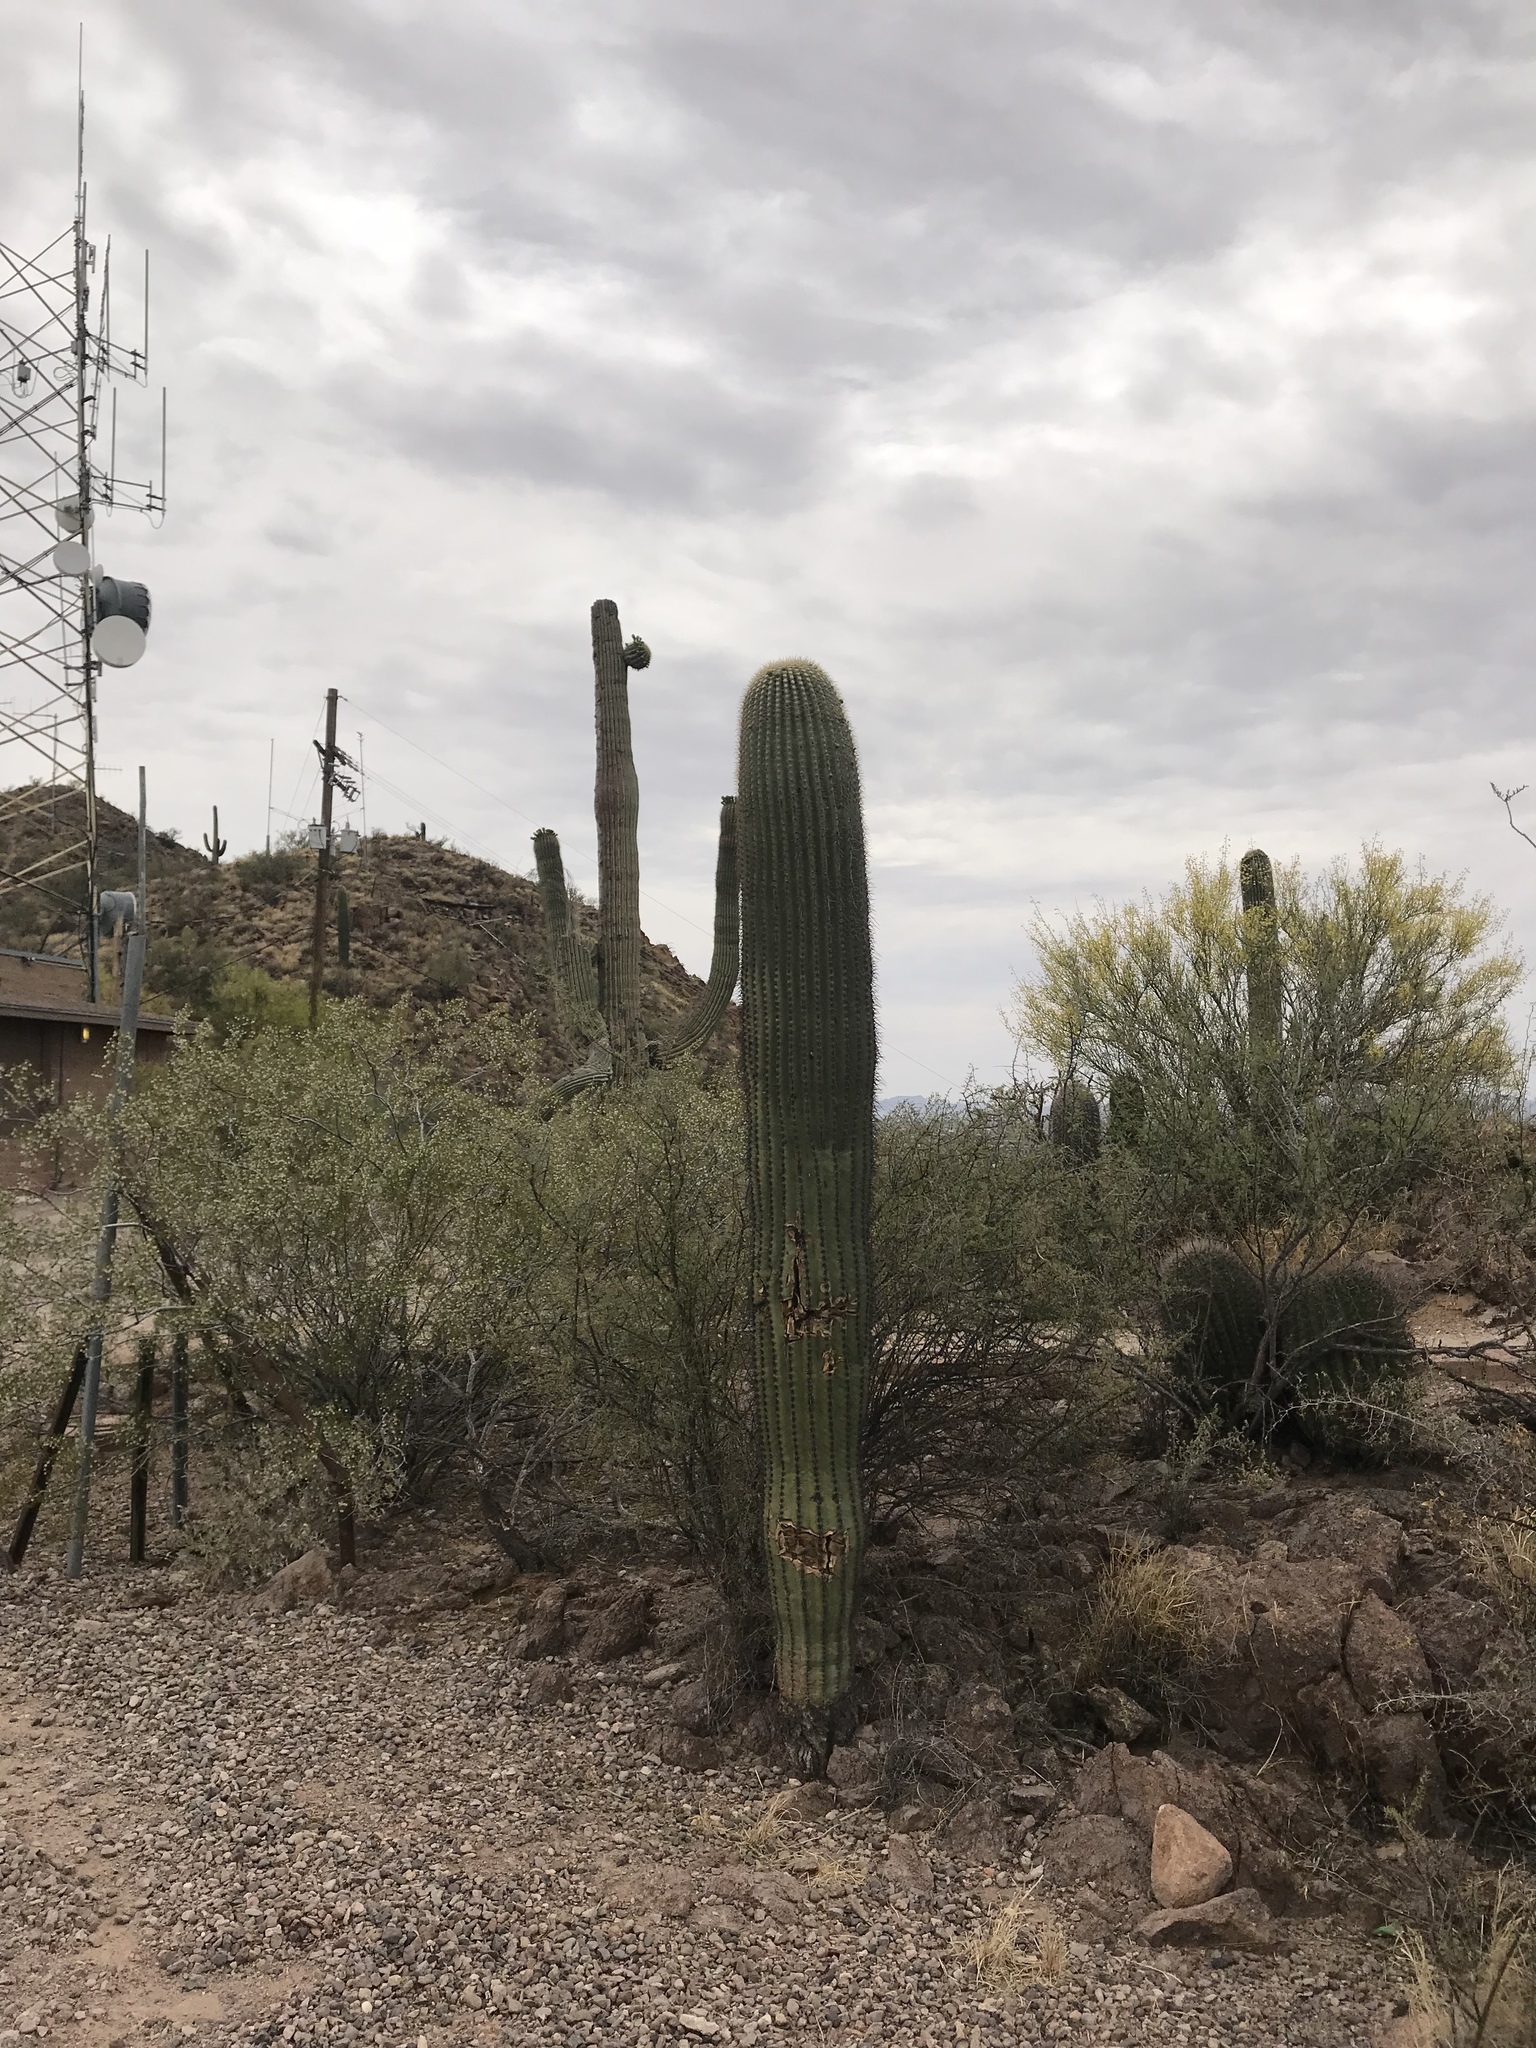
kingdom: Plantae
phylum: Tracheophyta
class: Magnoliopsida
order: Caryophyllales
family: Cactaceae
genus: Carnegiea
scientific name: Carnegiea gigantea
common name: Saguaro
